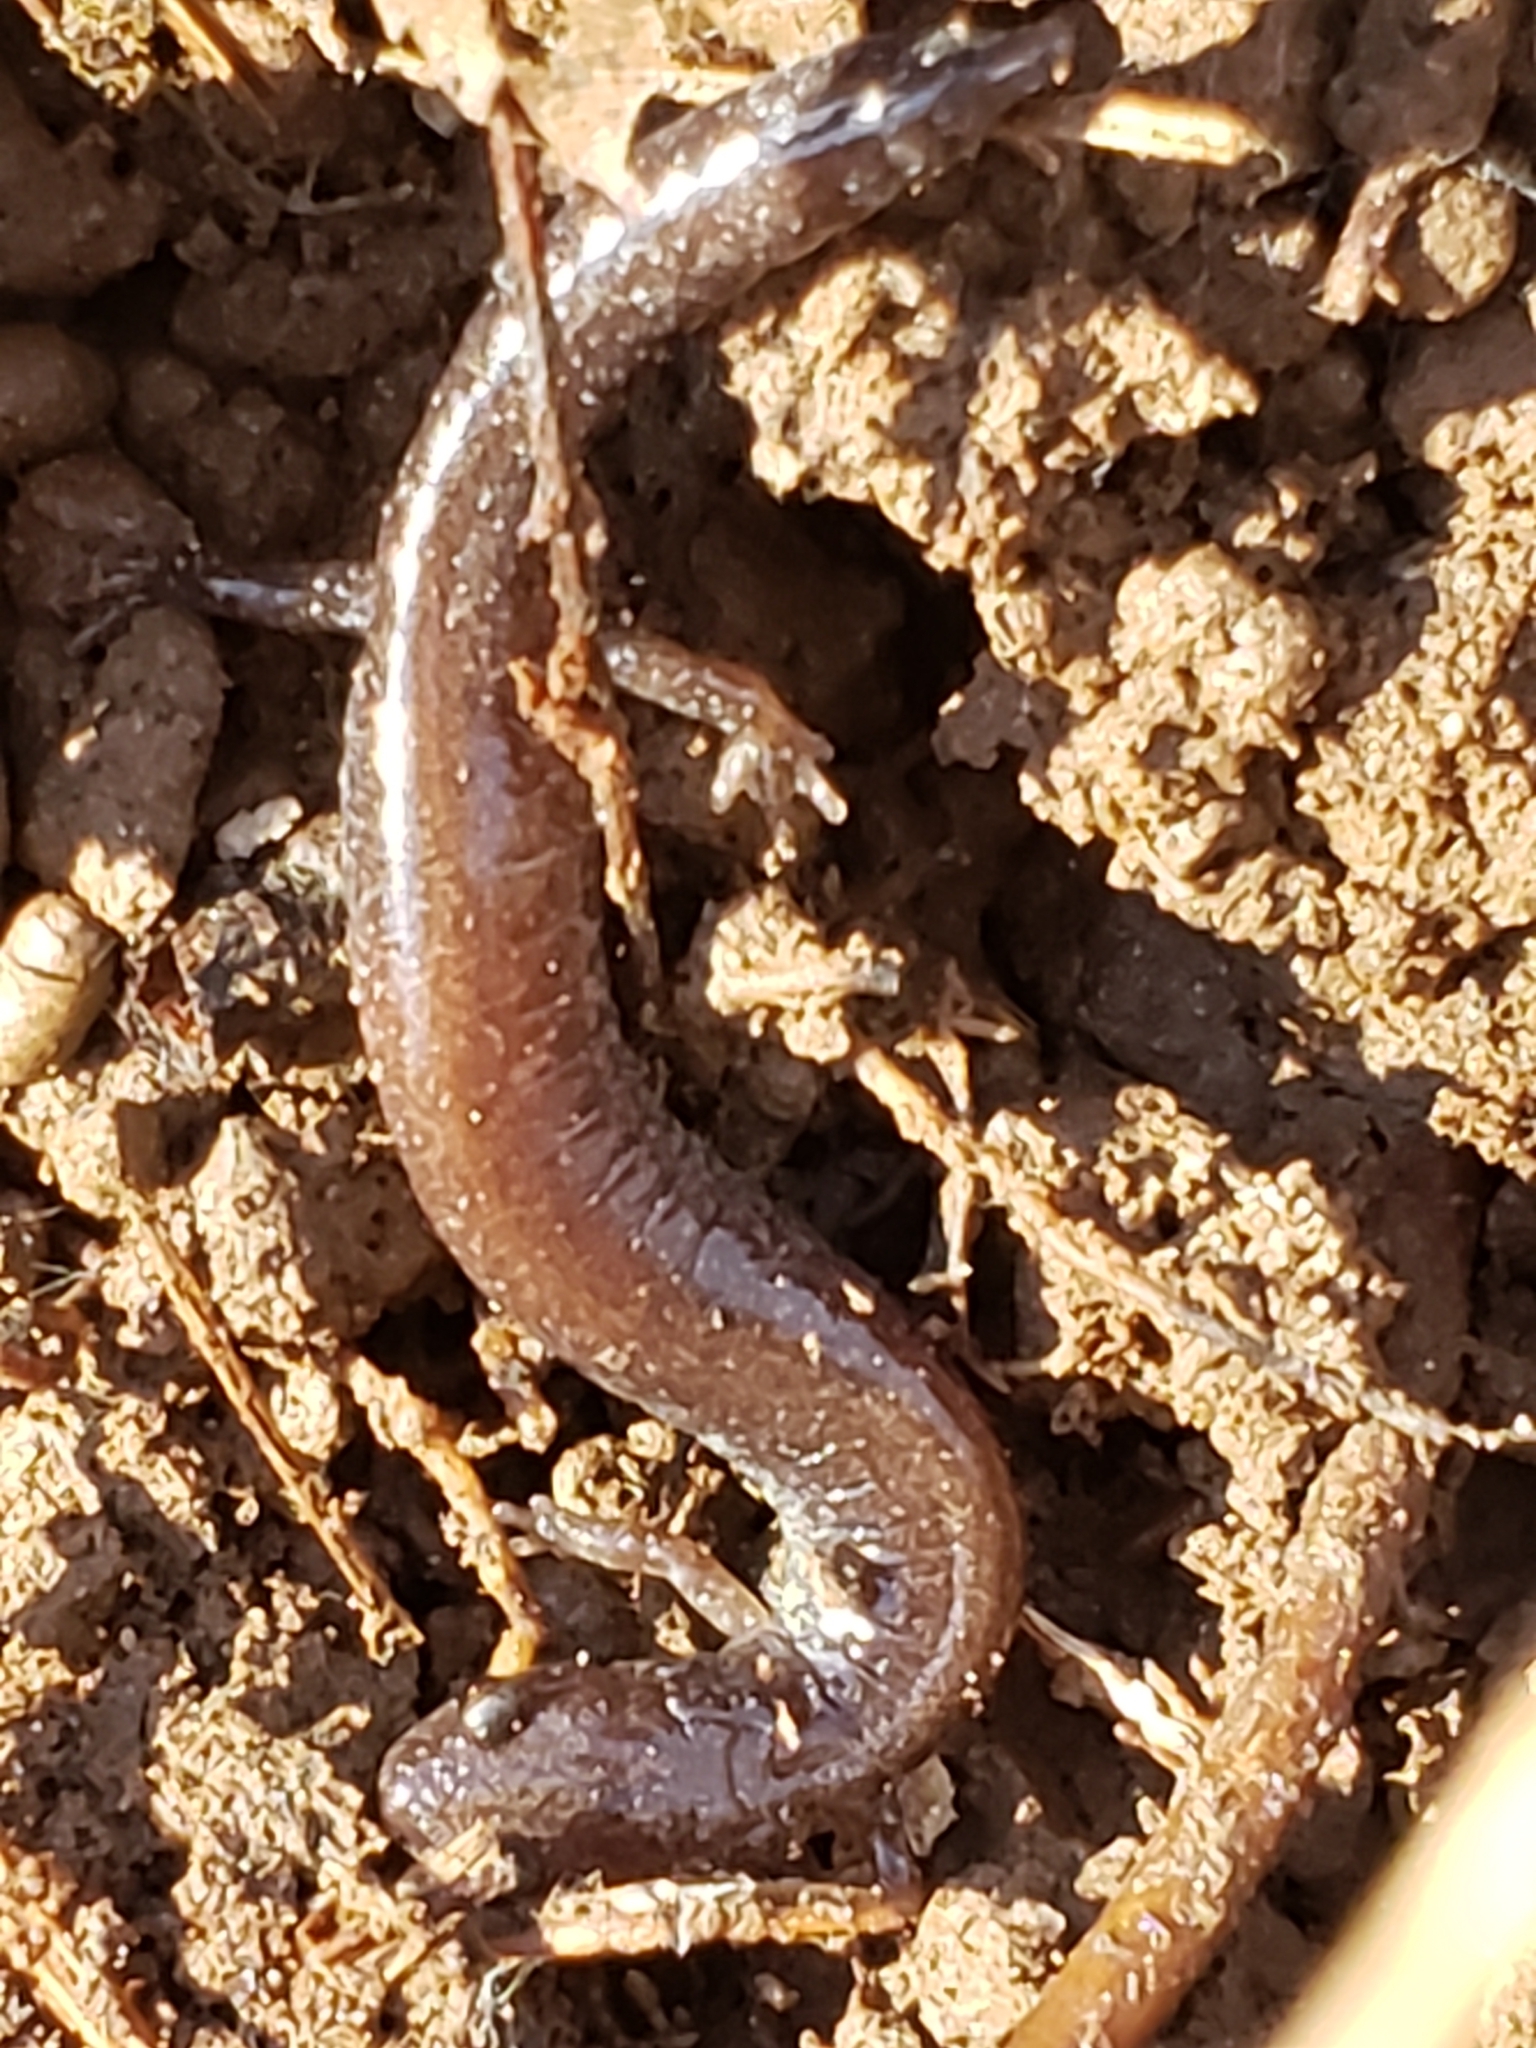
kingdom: Animalia
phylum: Chordata
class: Amphibia
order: Caudata
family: Plethodontidae
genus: Plethodon
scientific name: Plethodon cinereus
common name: Redback salamander
